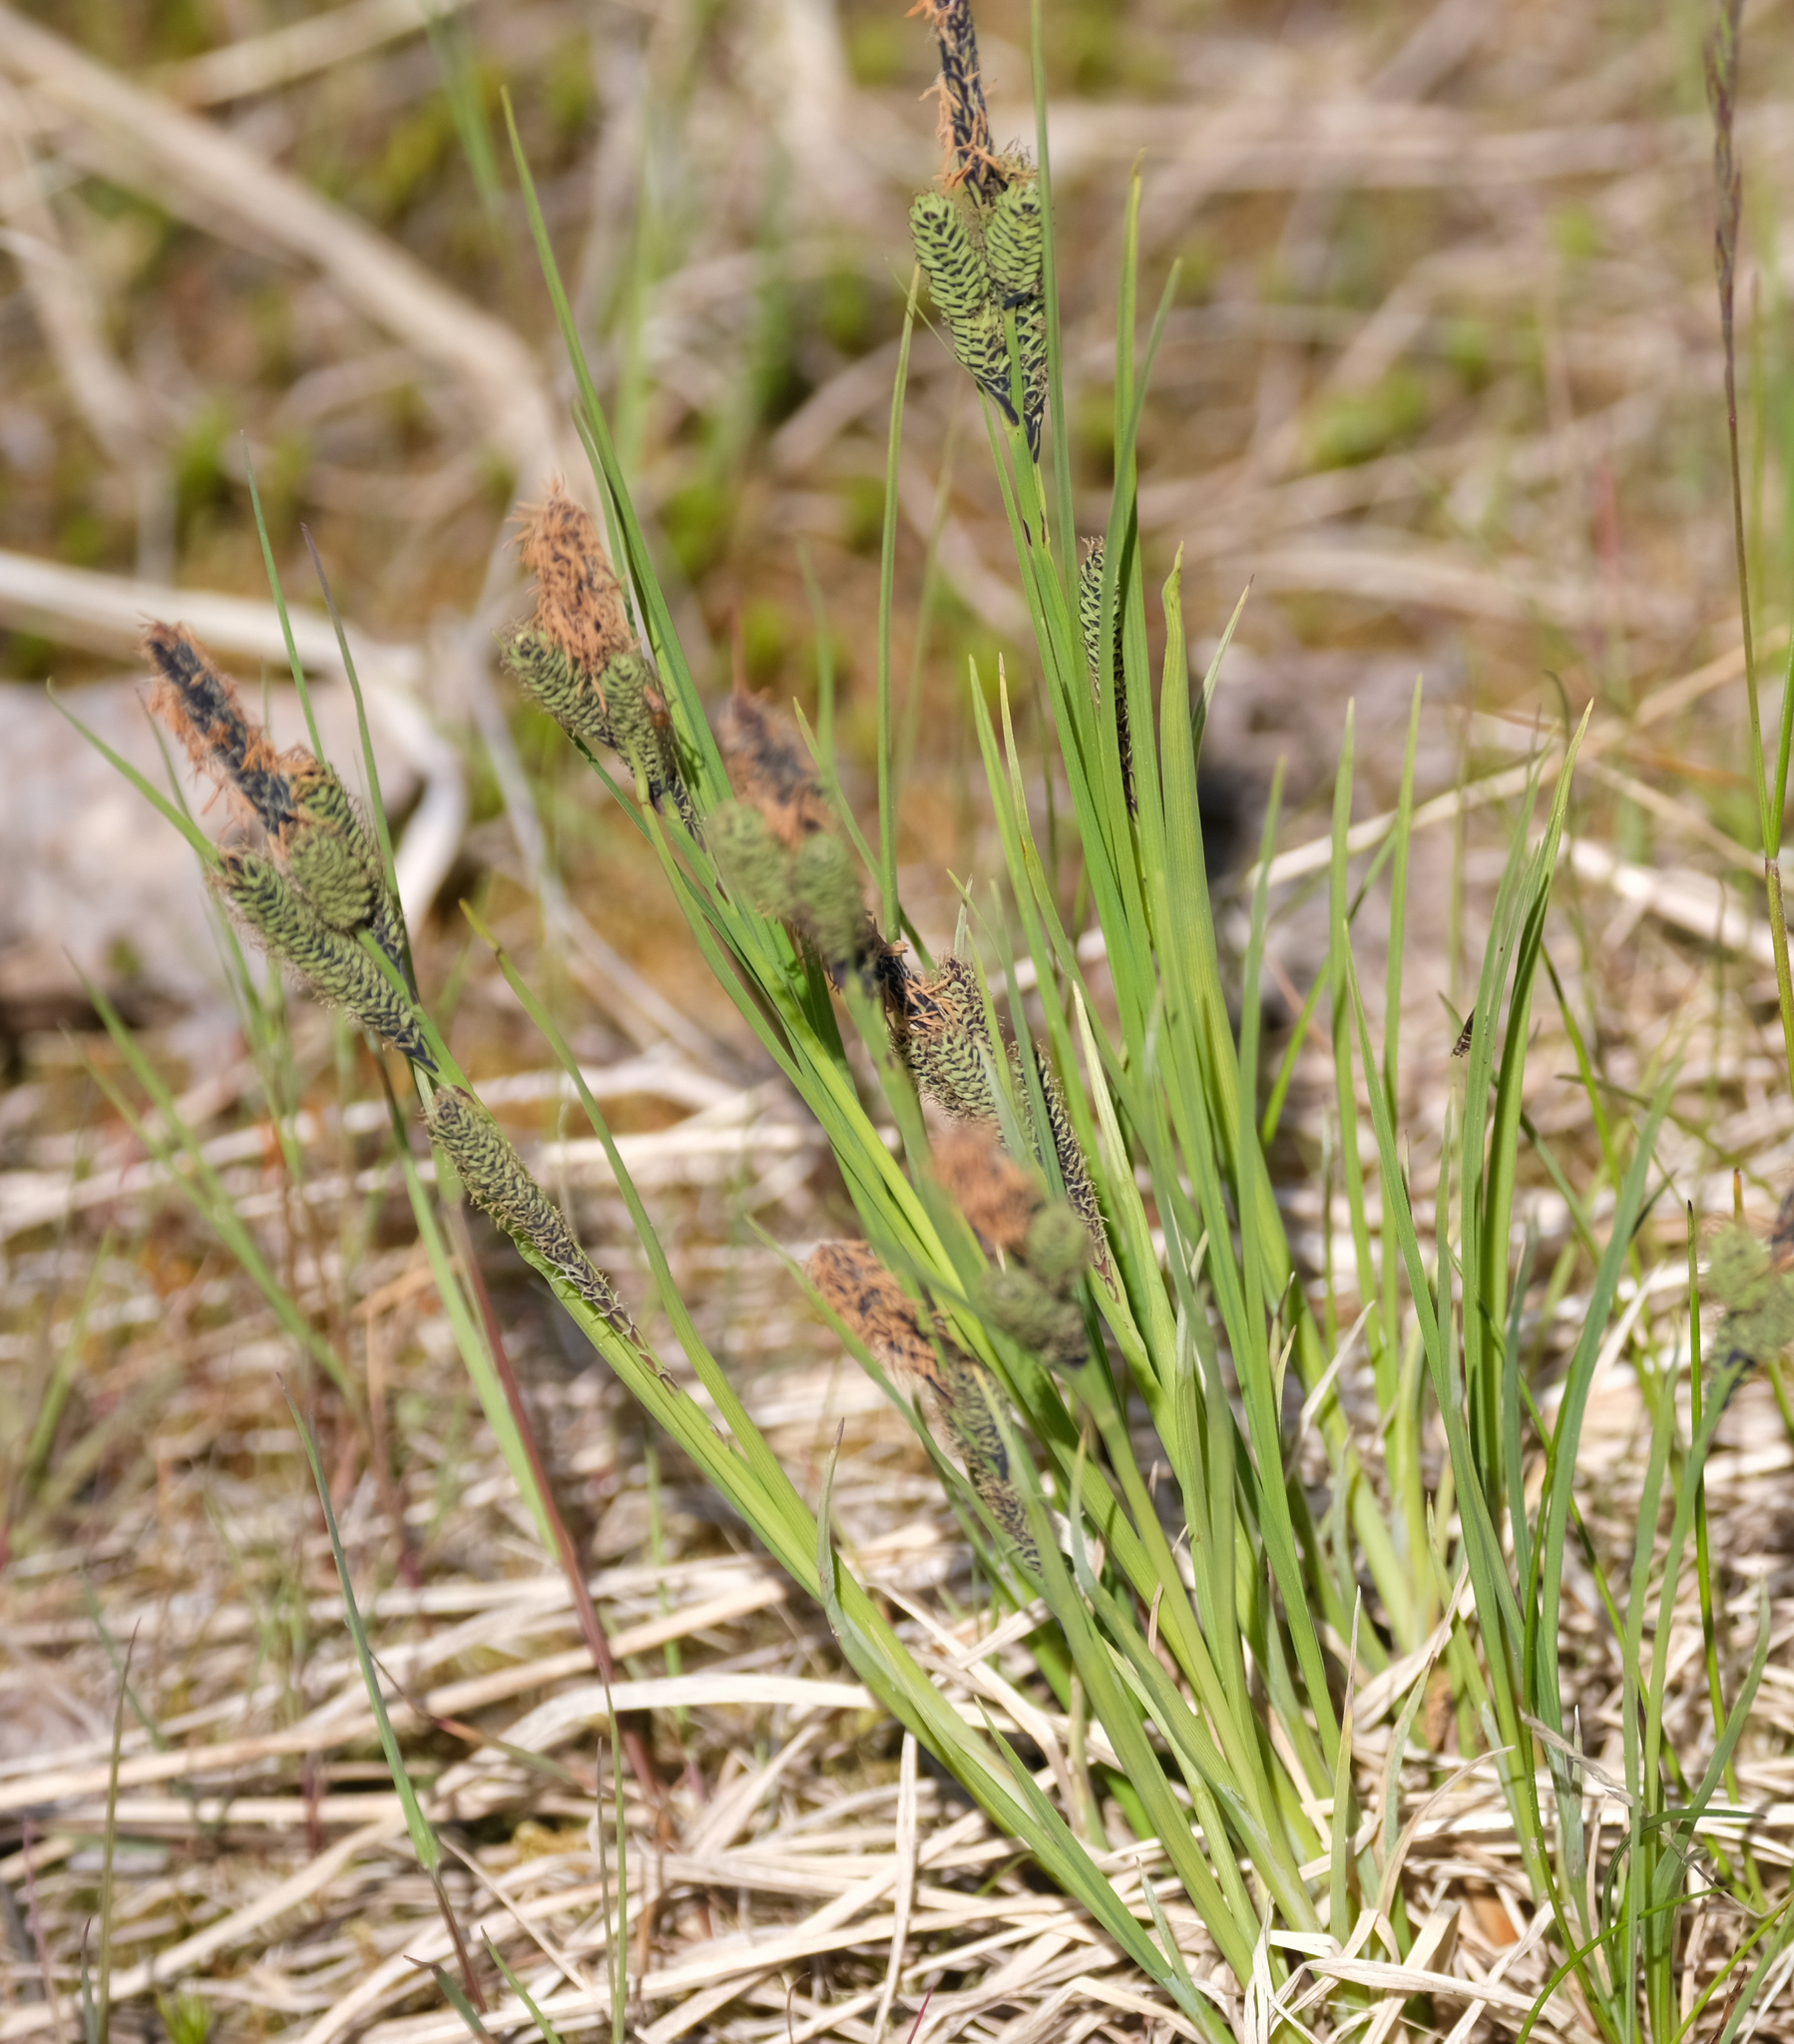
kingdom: Plantae
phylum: Tracheophyta
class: Liliopsida
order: Poales
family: Cyperaceae
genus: Carex
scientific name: Carex lenticularis
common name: Lakeshore sedge
